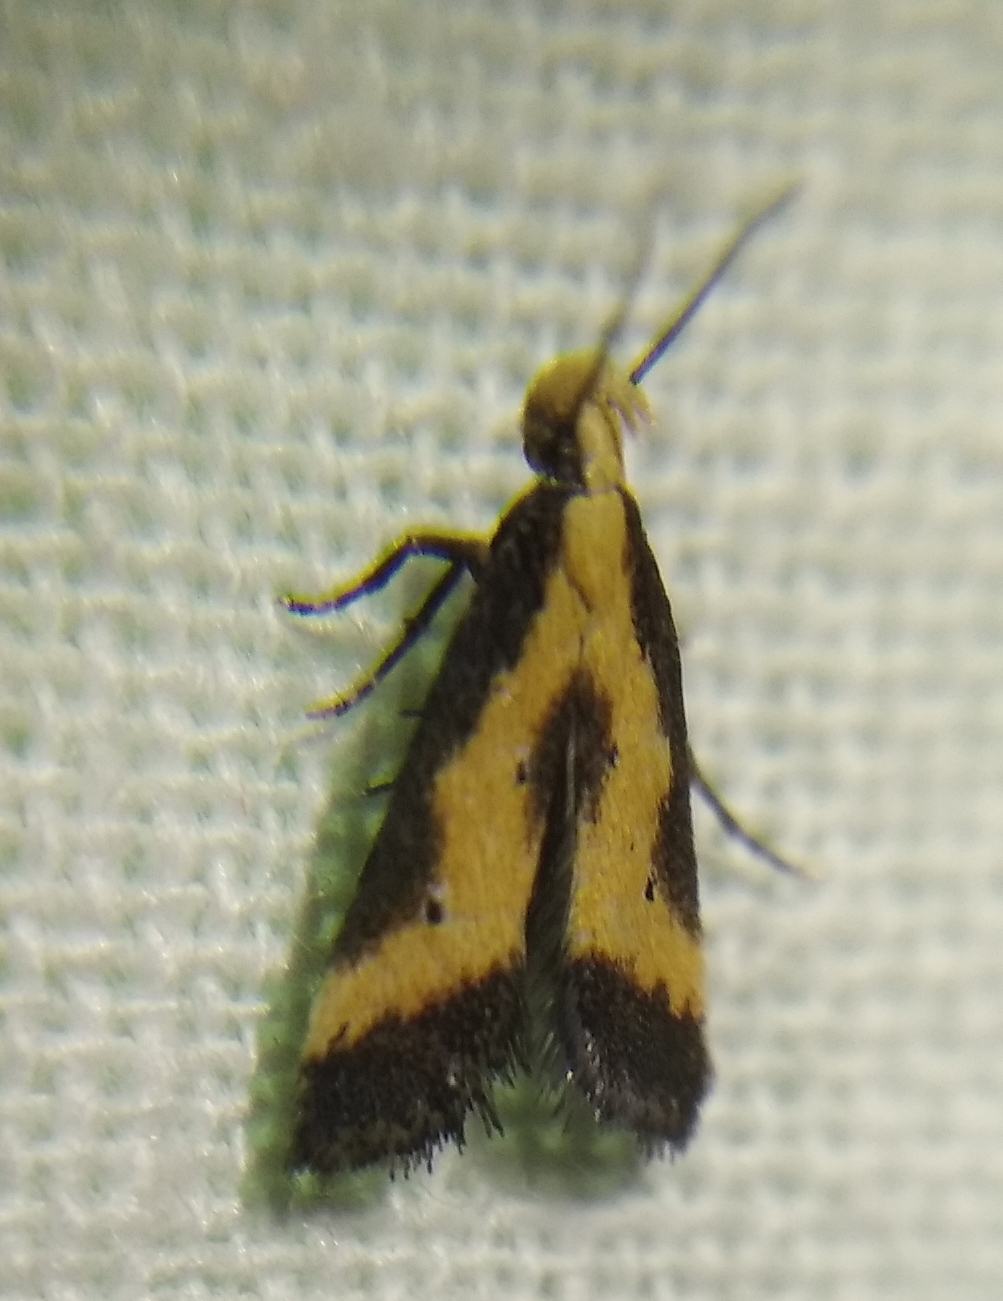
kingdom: Animalia
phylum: Arthropoda
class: Insecta
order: Lepidoptera
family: Gelechiidae
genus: Brachmia
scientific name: Brachmia dimidiella
